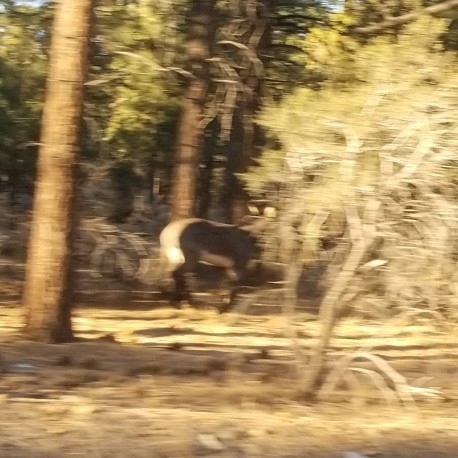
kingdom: Animalia
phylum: Chordata
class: Mammalia
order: Perissodactyla
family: Equidae
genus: Equus
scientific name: Equus asinus
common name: Ass
